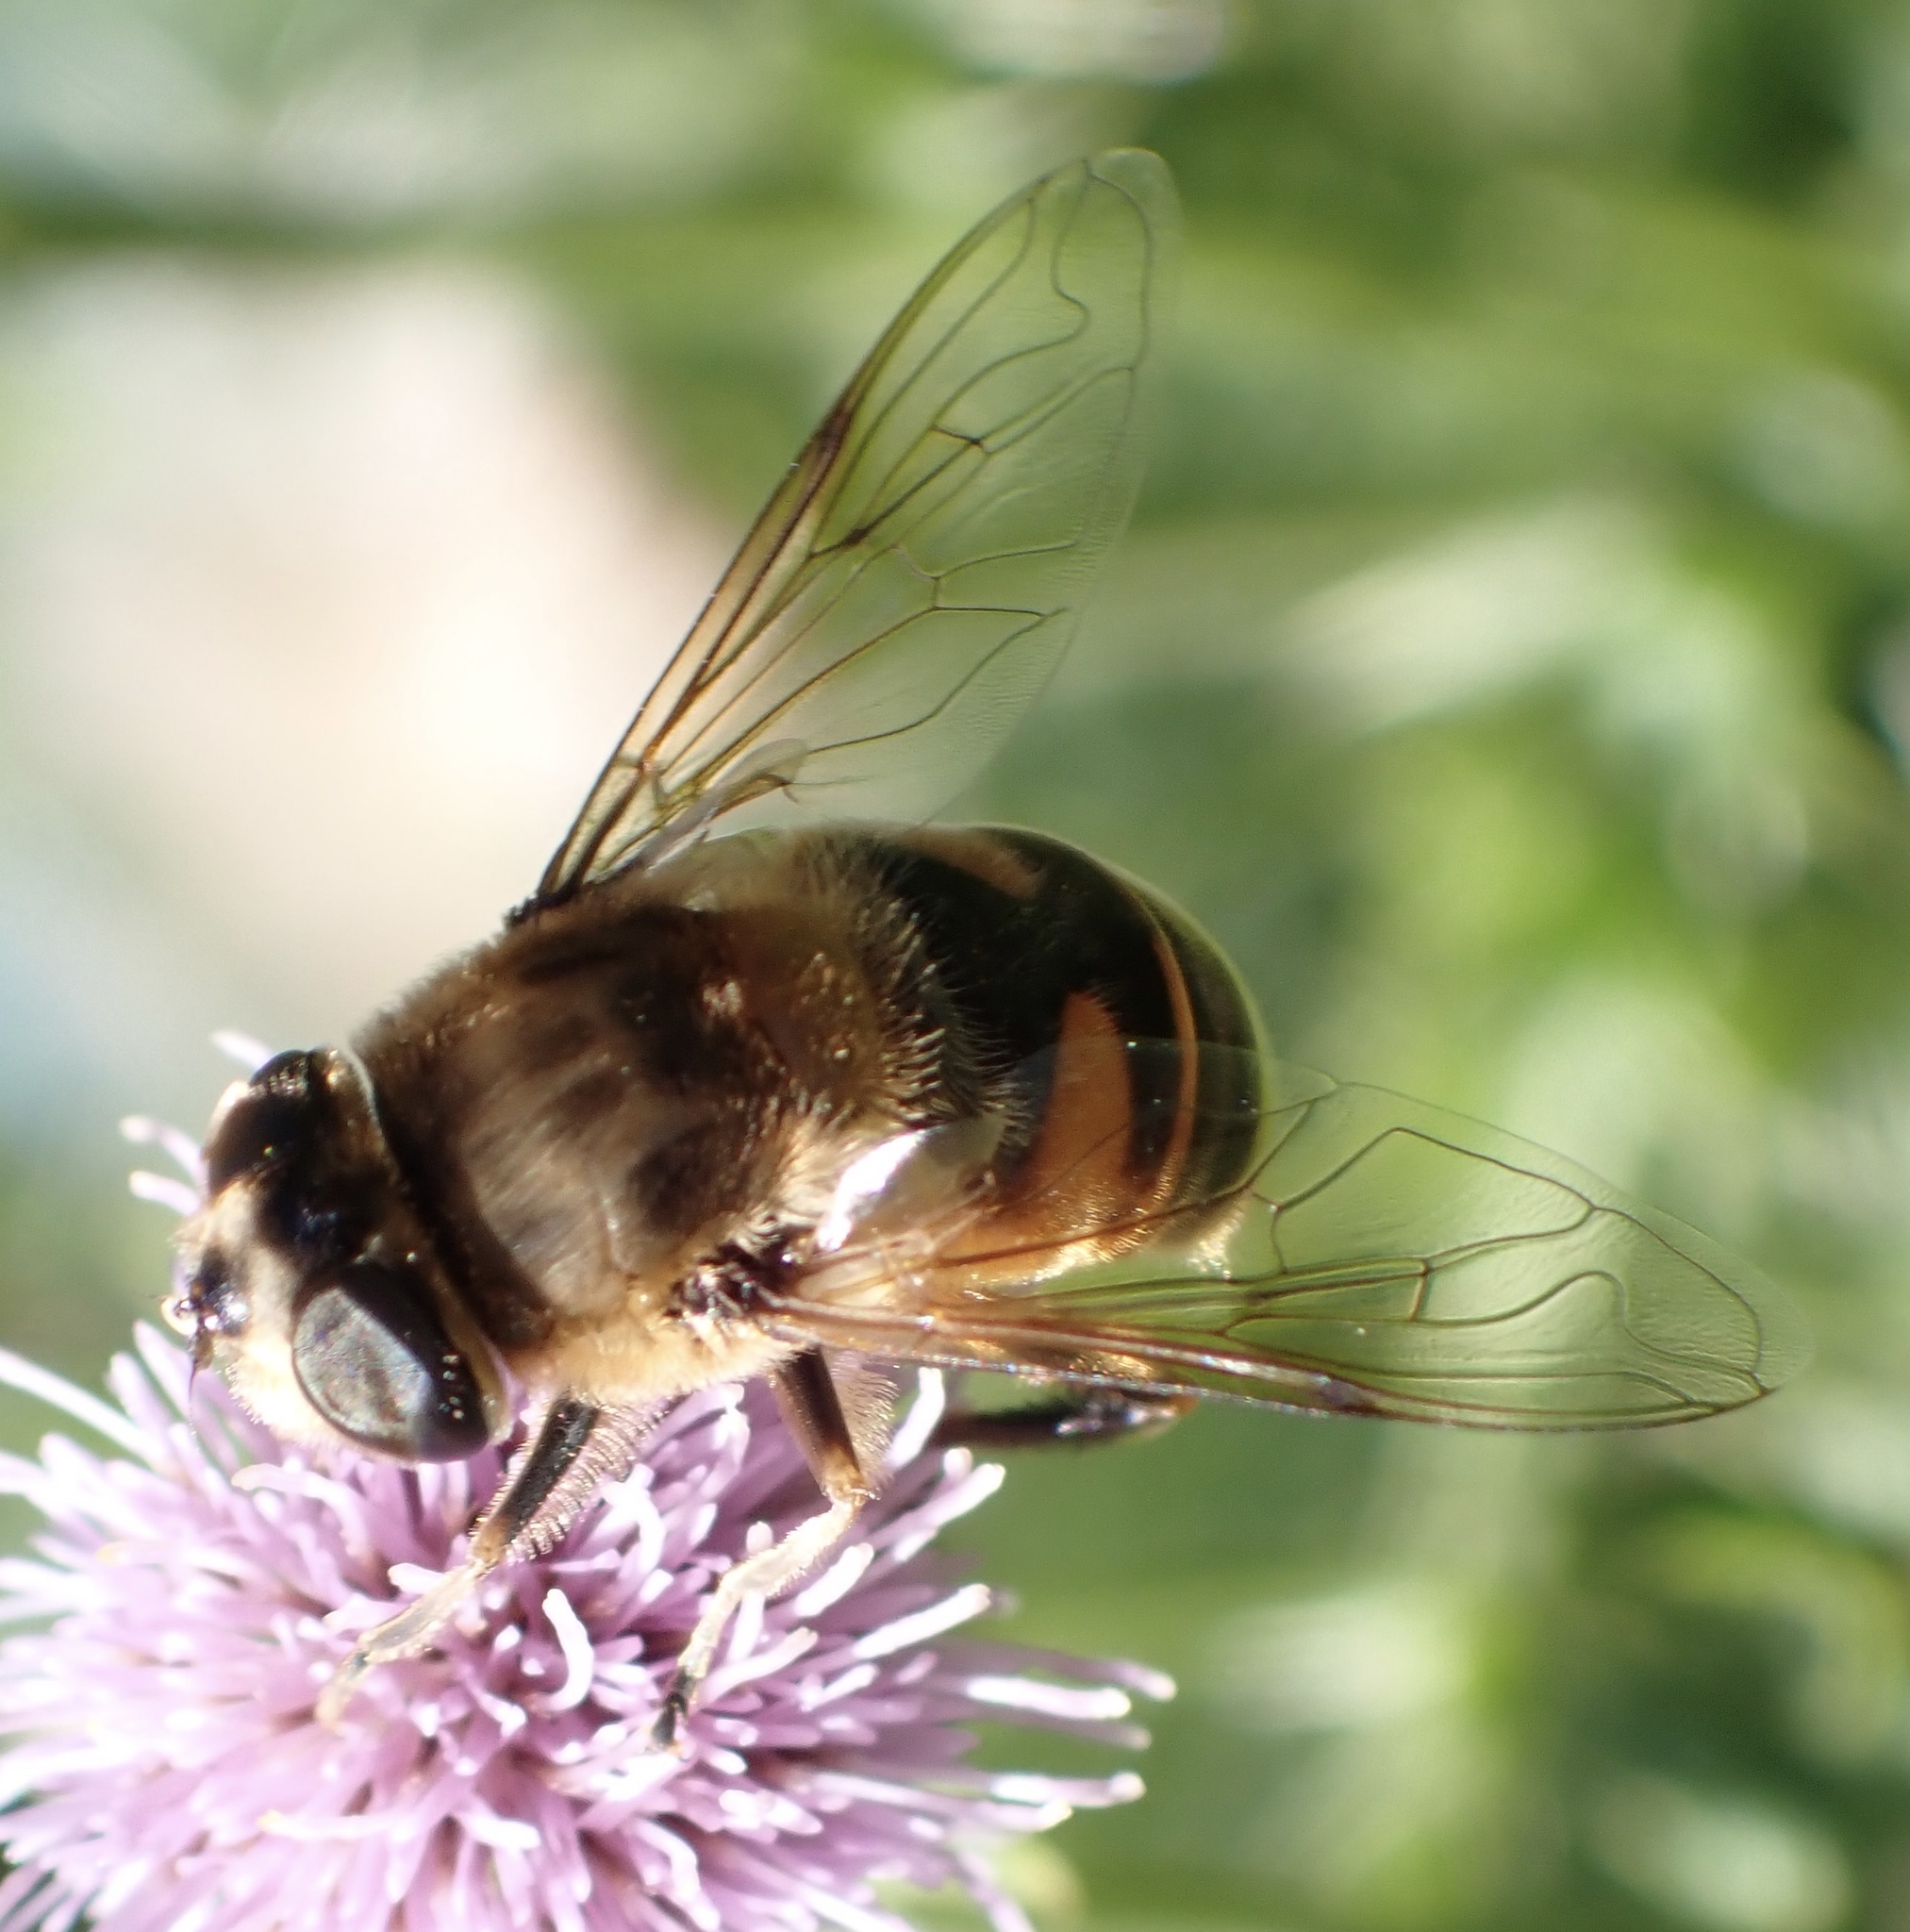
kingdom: Animalia
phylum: Arthropoda
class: Insecta
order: Diptera
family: Syrphidae
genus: Eristalis
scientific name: Eristalis tenax
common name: Drone fly
